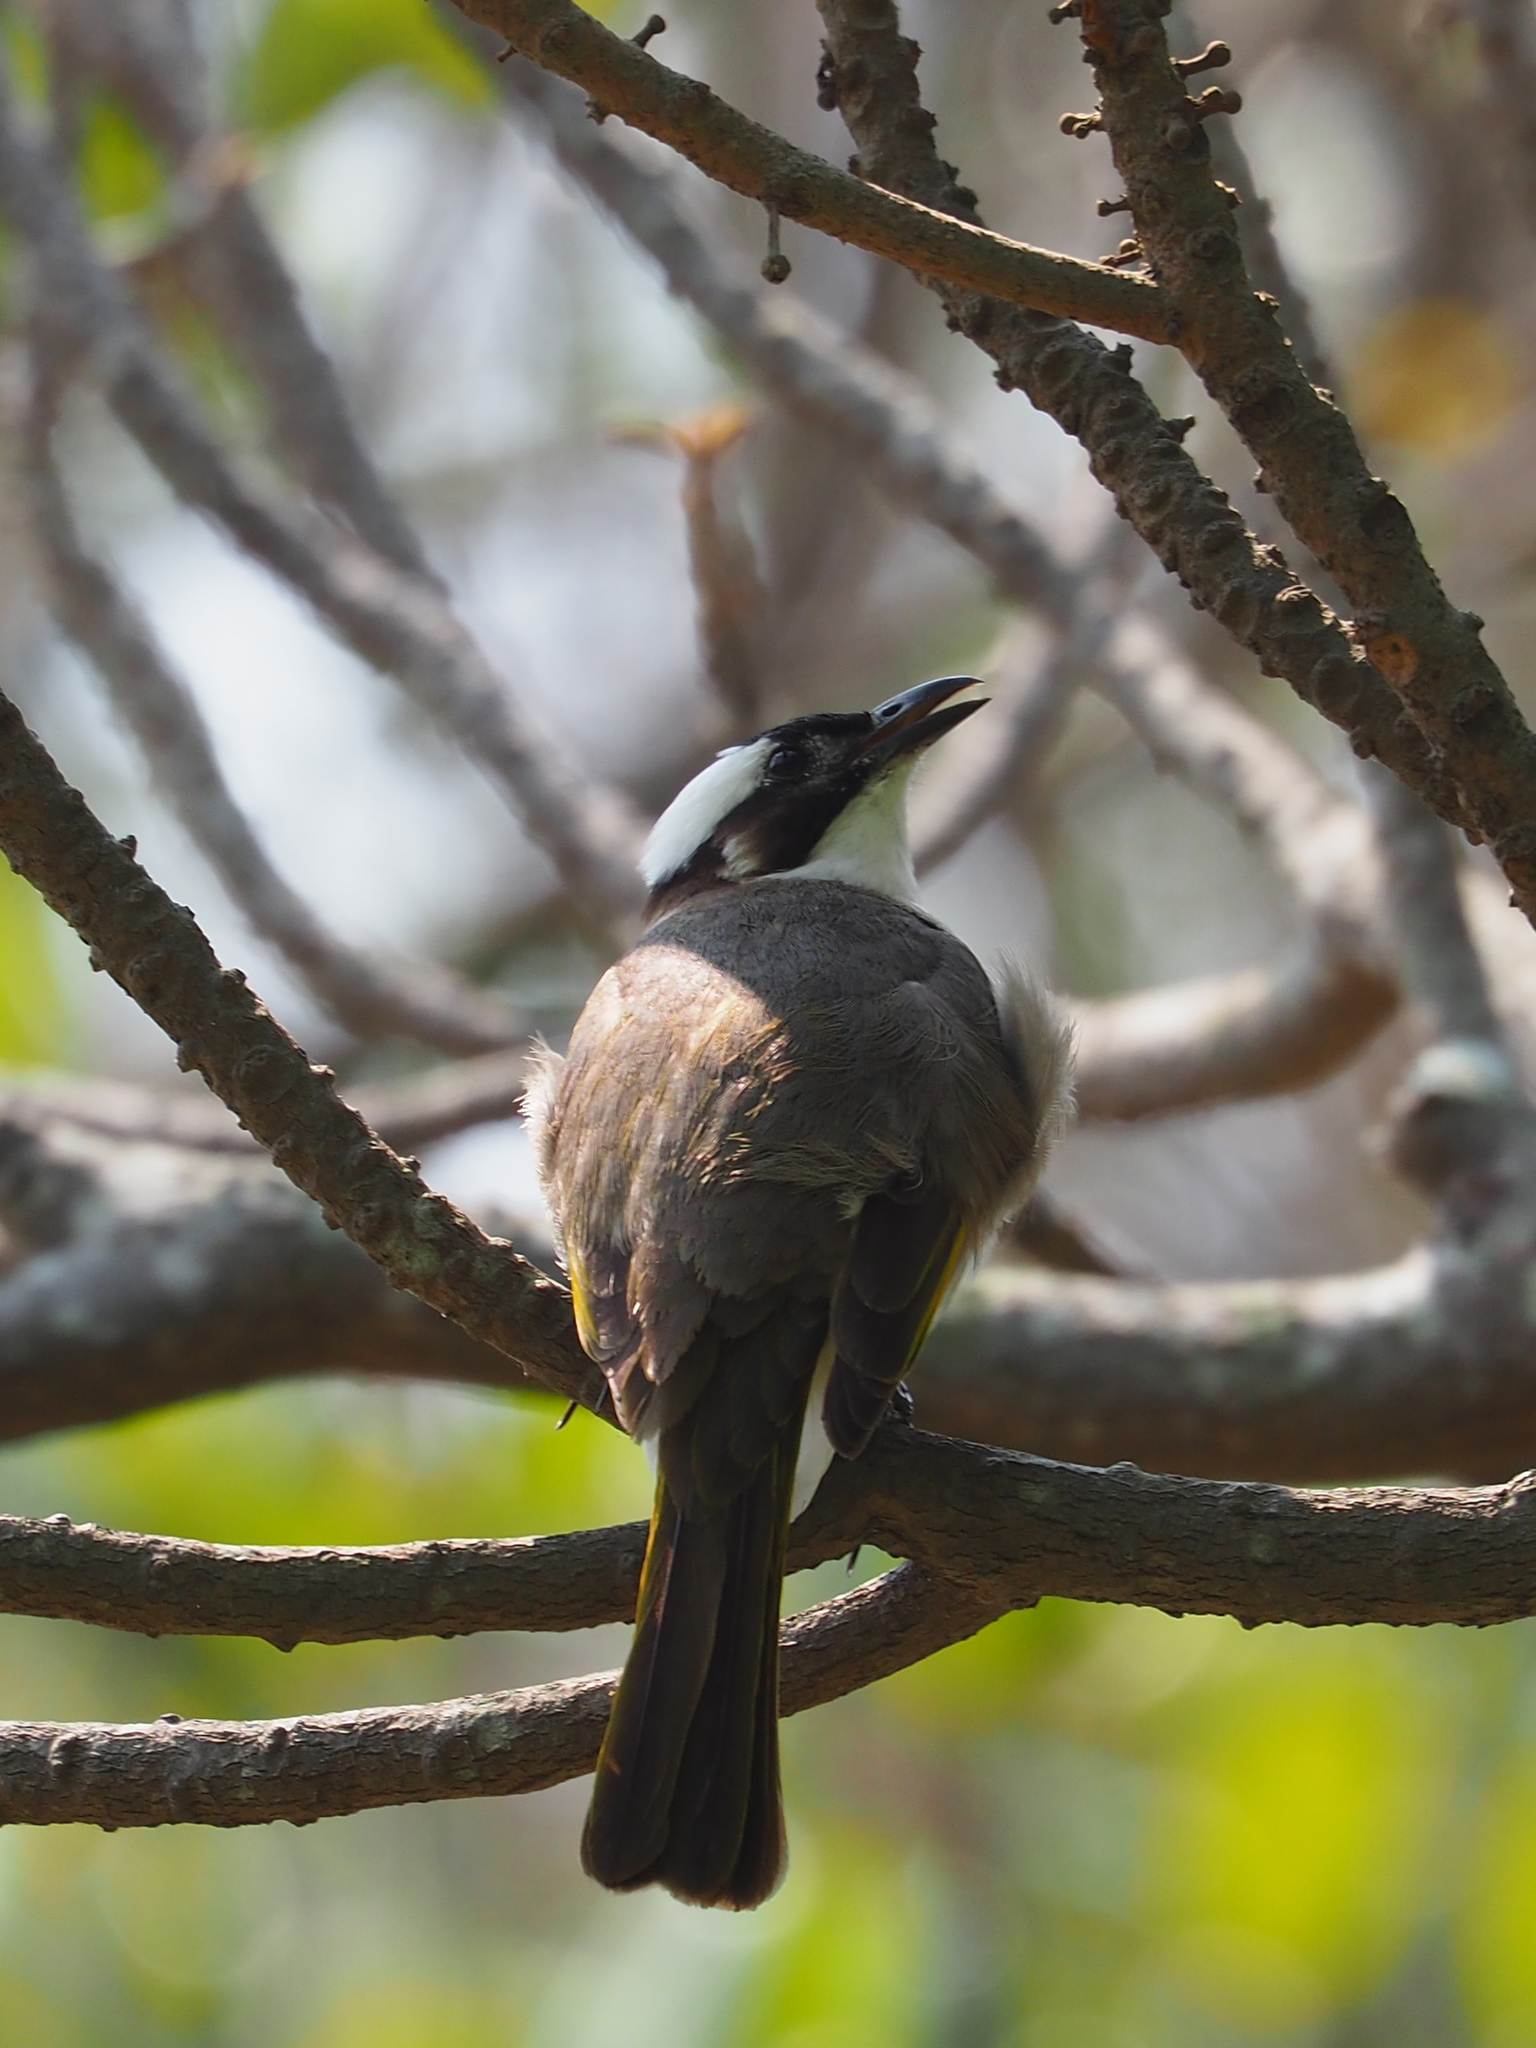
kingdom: Animalia
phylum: Chordata
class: Aves
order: Passeriformes
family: Pycnonotidae
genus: Pycnonotus
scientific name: Pycnonotus sinensis
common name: Light-vented bulbul
